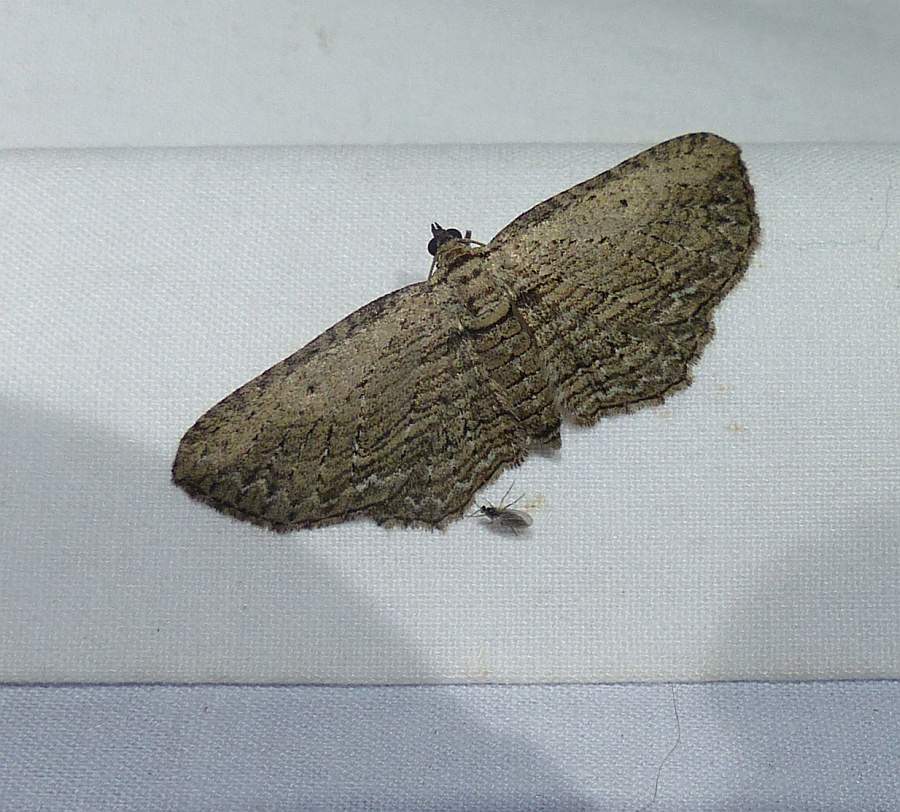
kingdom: Animalia
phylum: Arthropoda
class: Insecta
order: Lepidoptera
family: Geometridae
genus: Horisme
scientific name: Horisme intestinata
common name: Brown bark carpet
